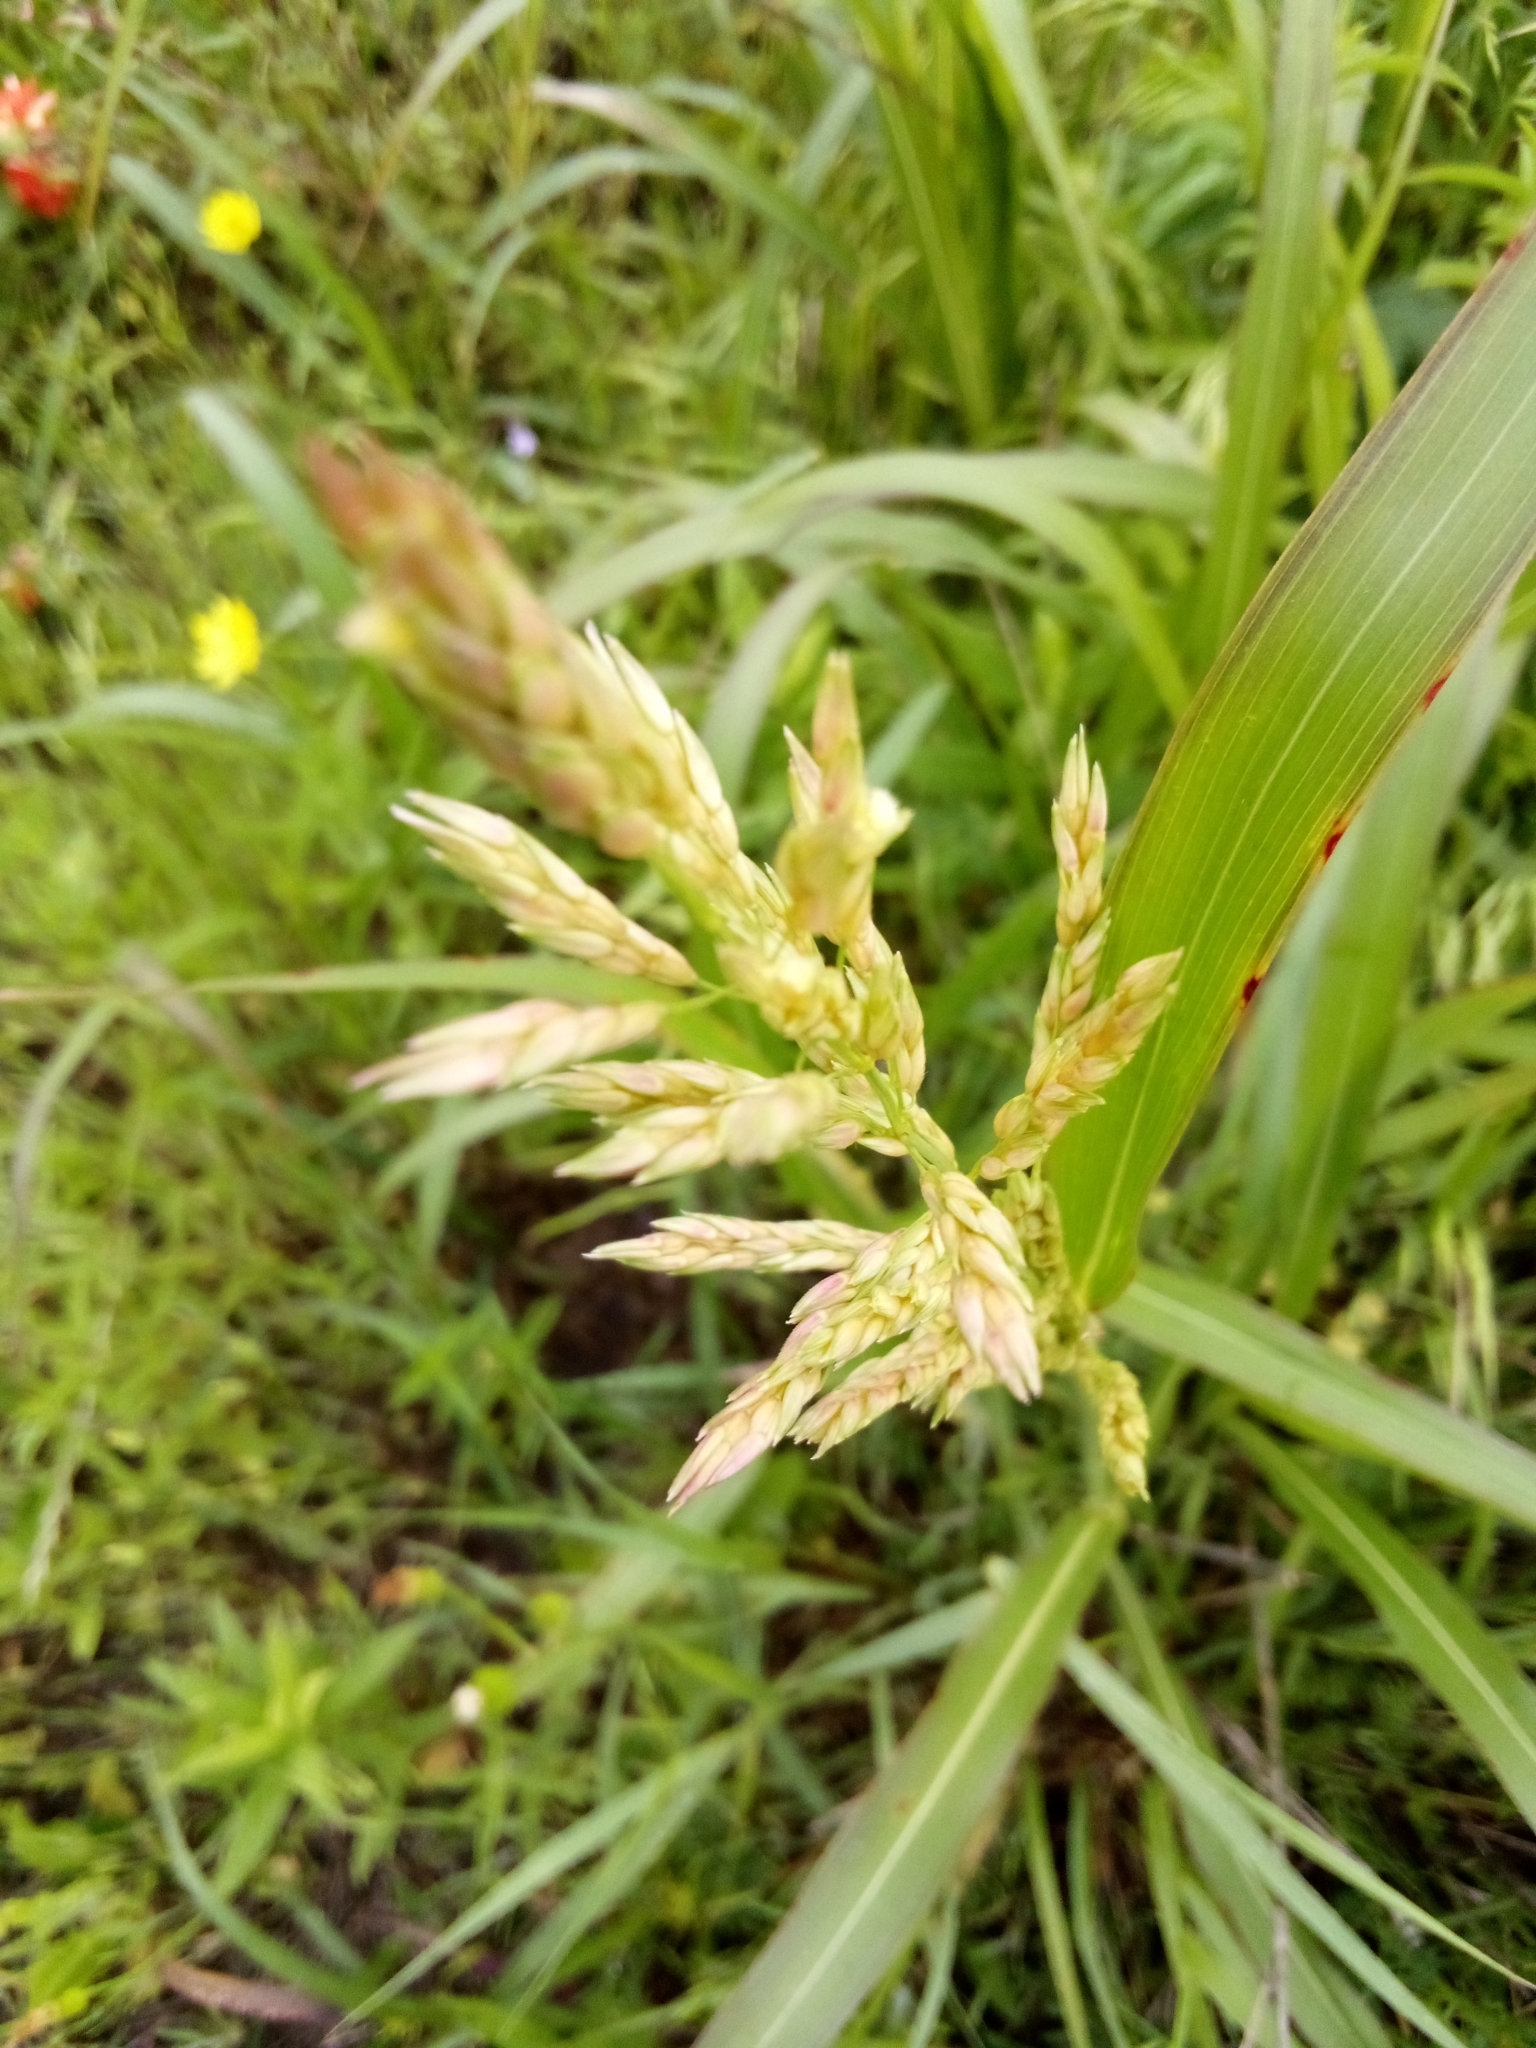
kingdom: Plantae
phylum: Tracheophyta
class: Liliopsida
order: Poales
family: Poaceae
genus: Sorghum
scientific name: Sorghum halepense
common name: Johnson-grass
